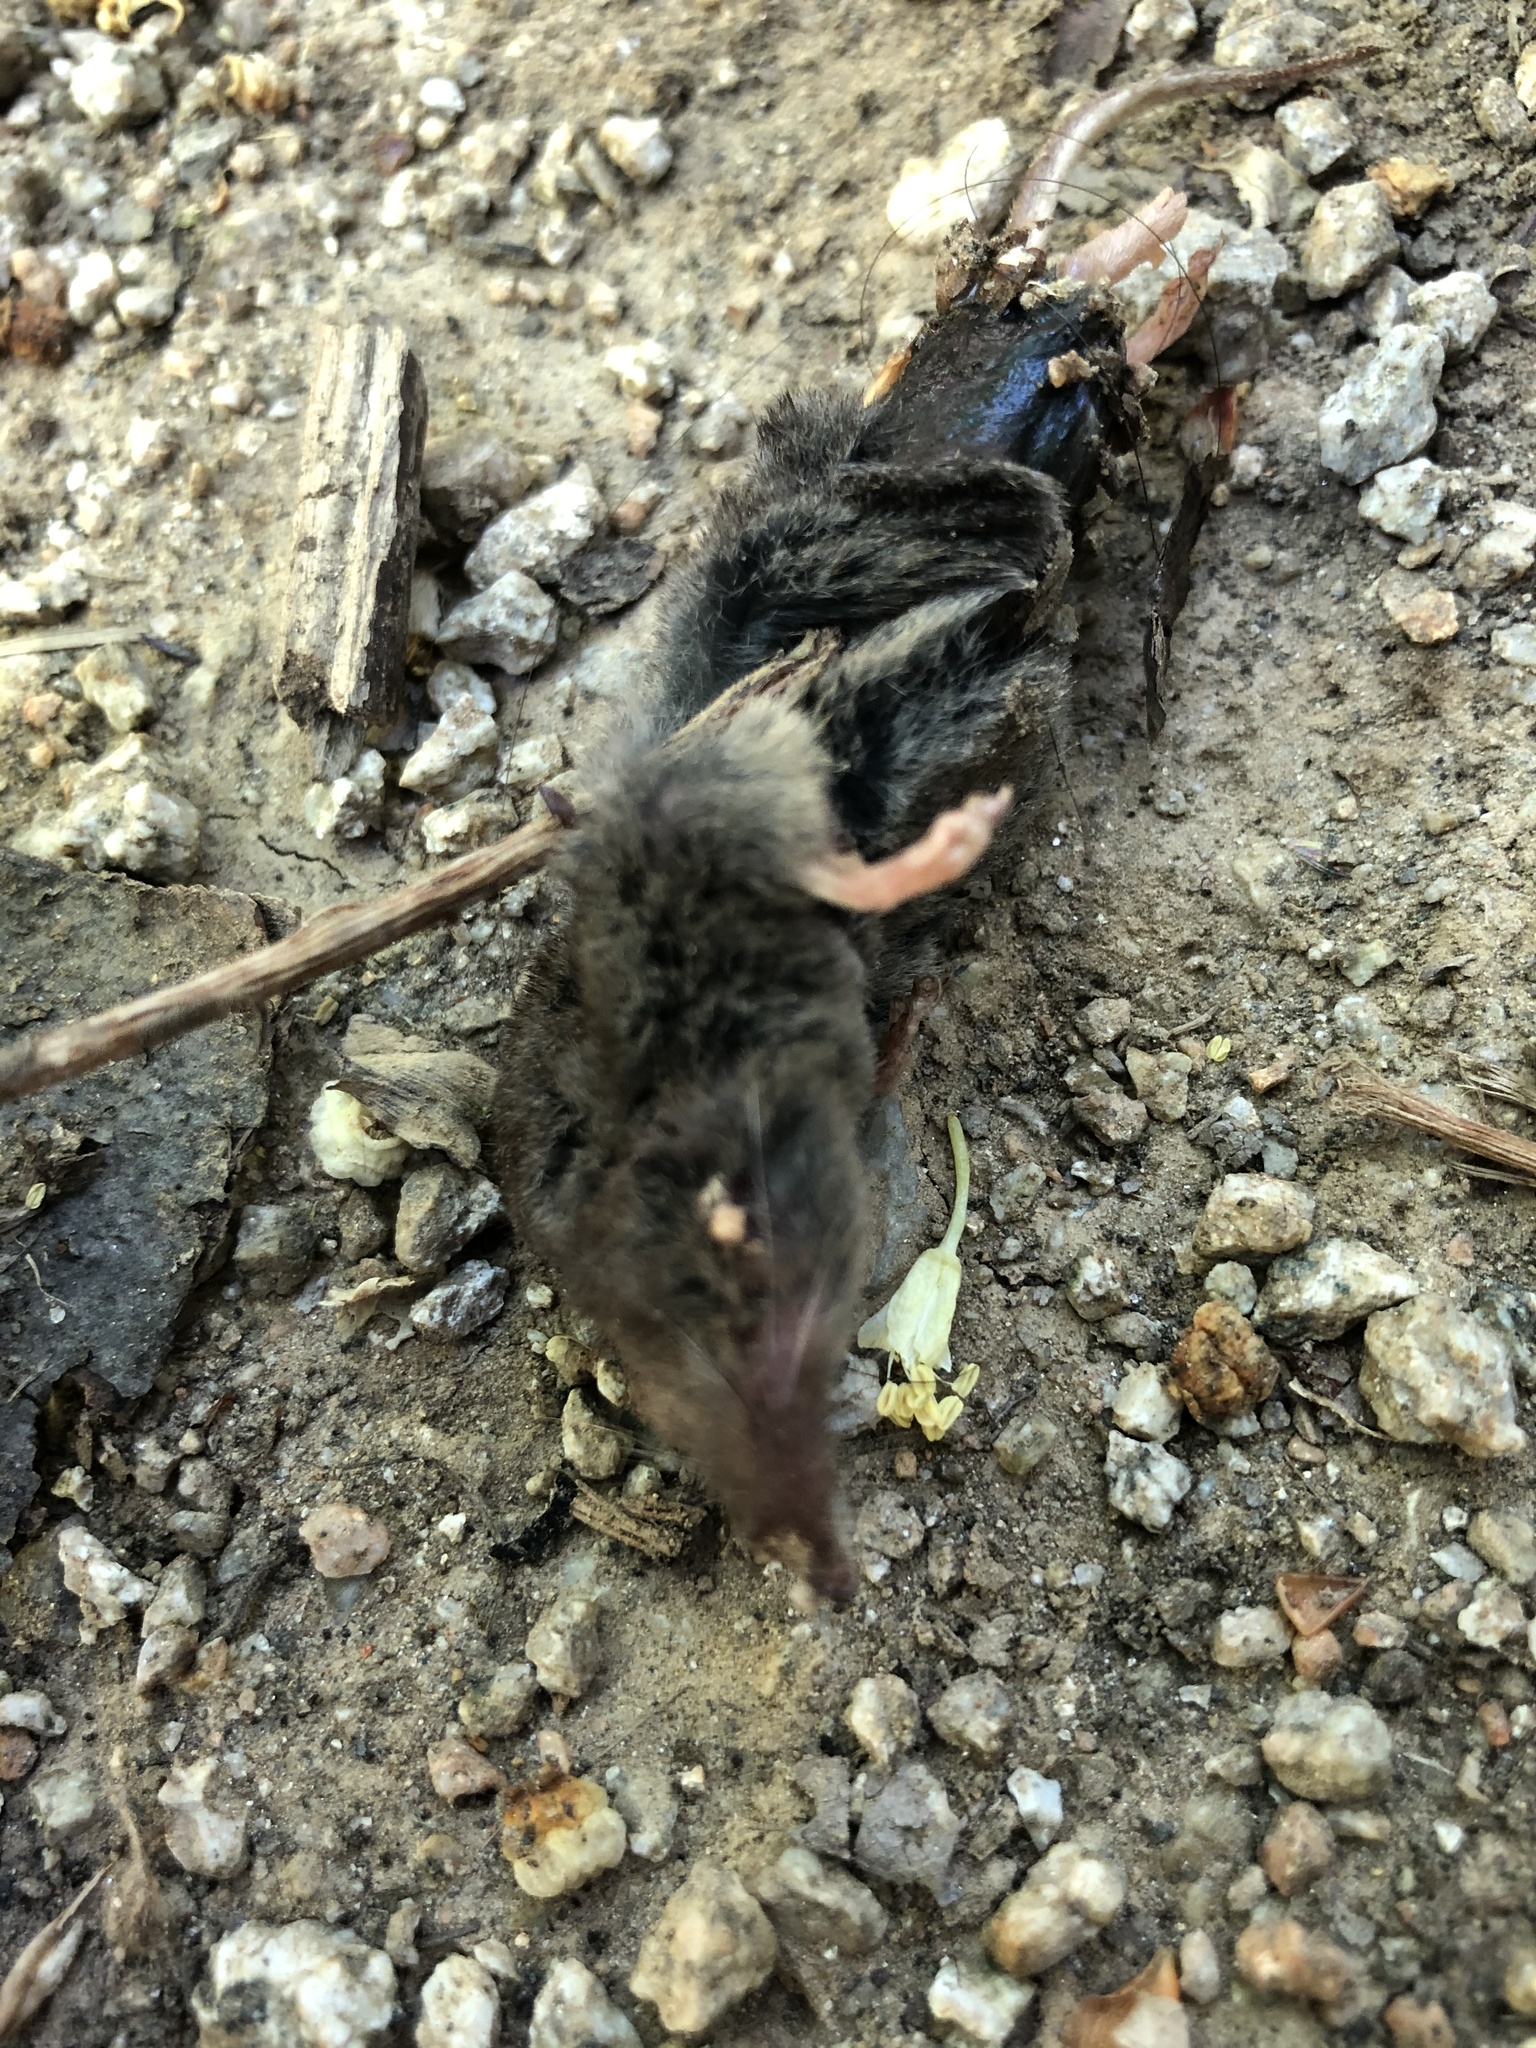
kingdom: Animalia
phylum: Chordata
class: Mammalia
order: Soricomorpha
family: Soricidae
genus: Sorex
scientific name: Sorex vagrans
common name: Vagrant shrew
